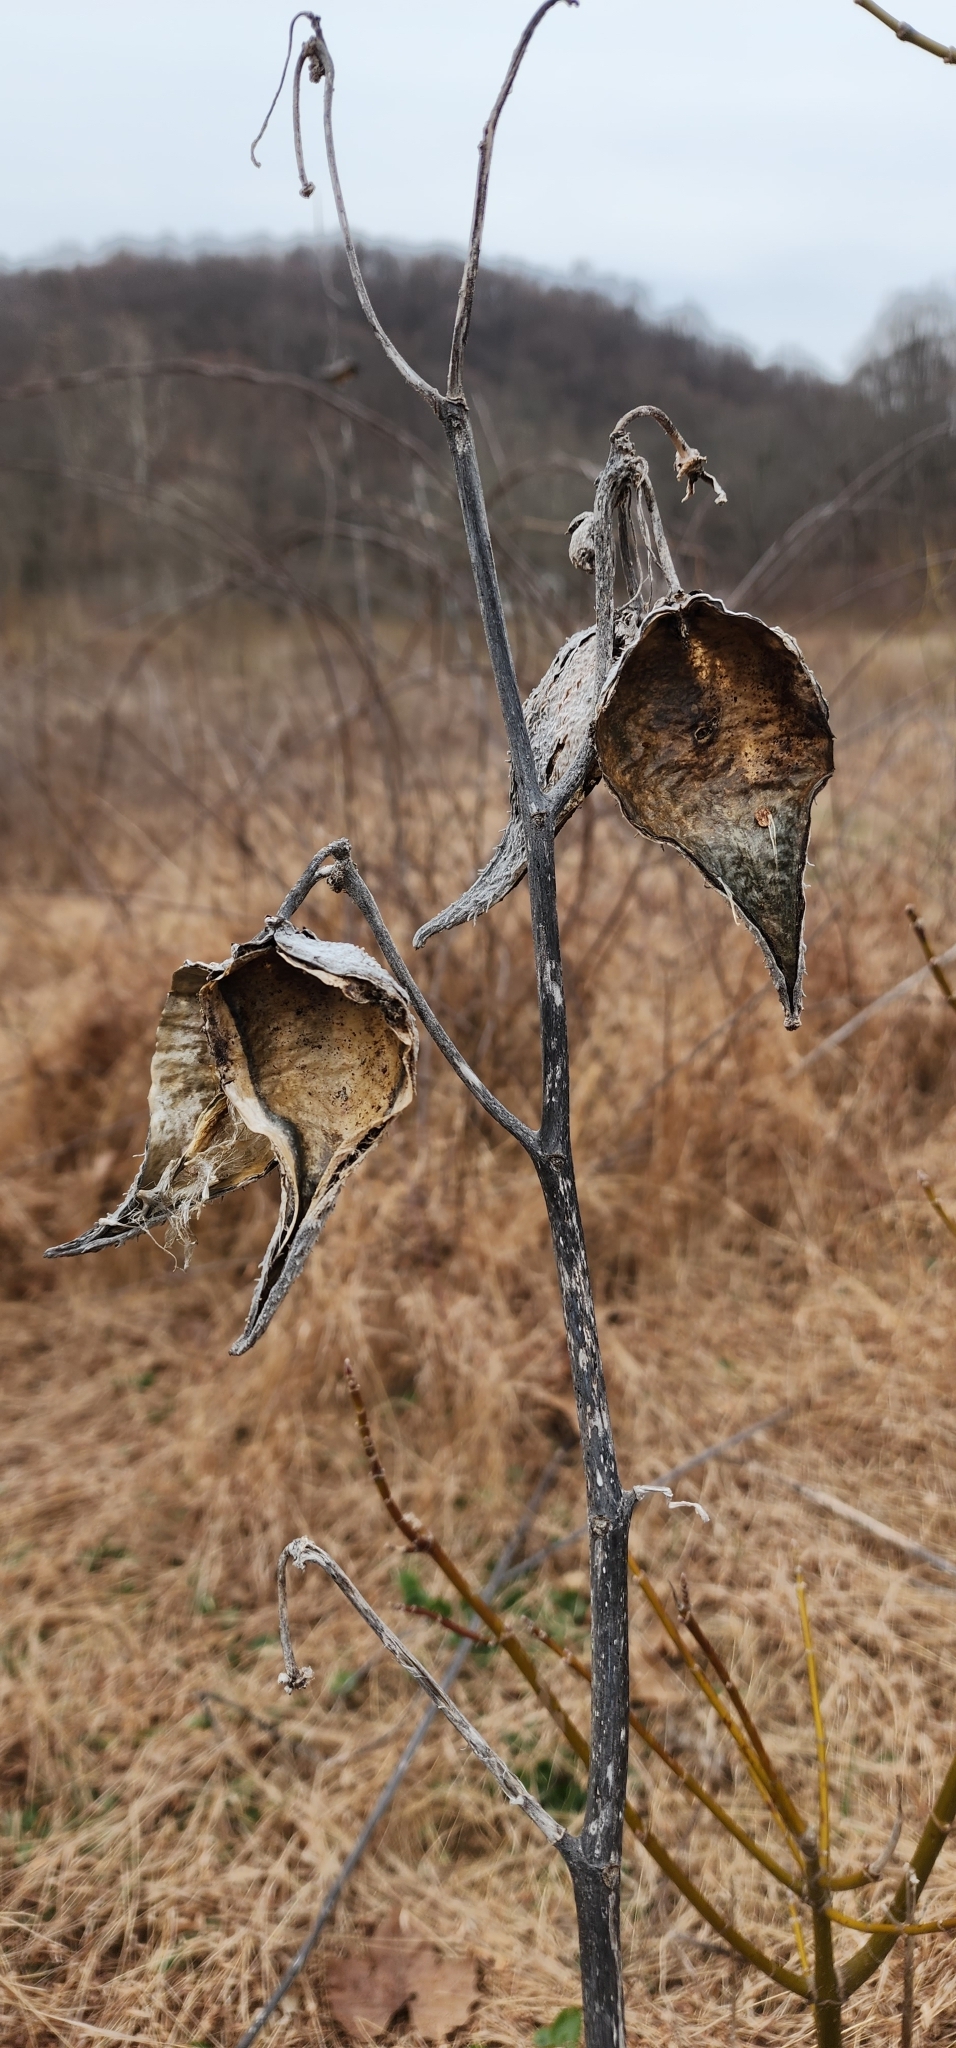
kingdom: Plantae
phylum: Tracheophyta
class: Magnoliopsida
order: Gentianales
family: Apocynaceae
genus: Asclepias
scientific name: Asclepias syriaca
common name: Common milkweed
